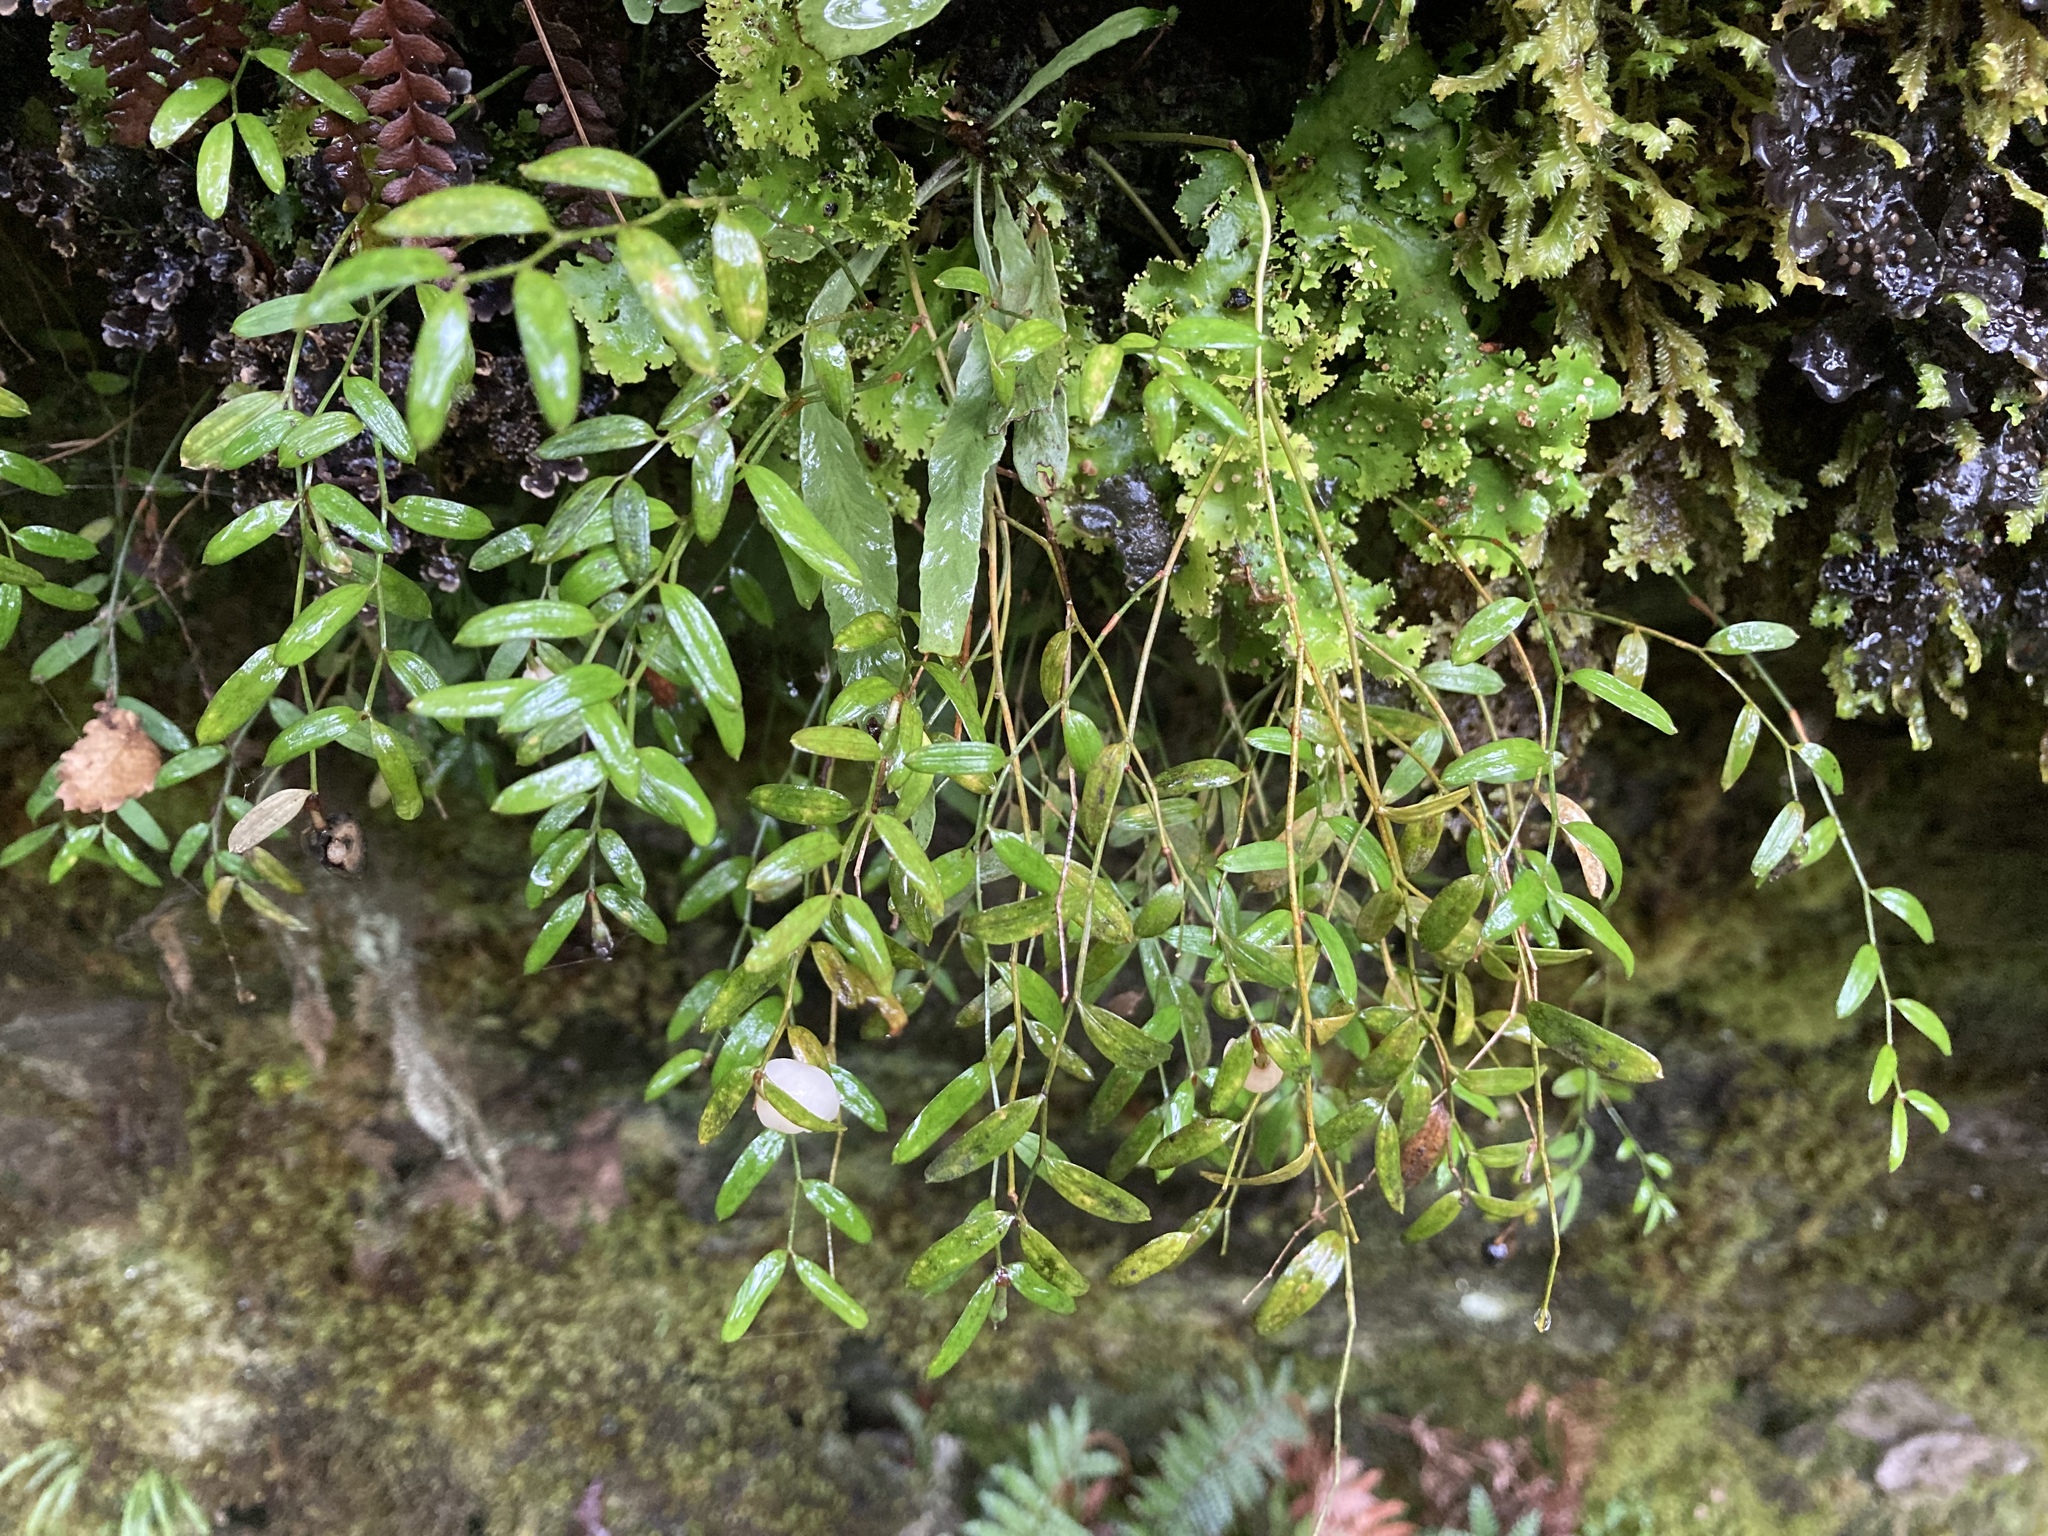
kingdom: Plantae
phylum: Tracheophyta
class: Liliopsida
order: Liliales
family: Alstroemeriaceae
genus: Luzuriaga
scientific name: Luzuriaga parviflora
